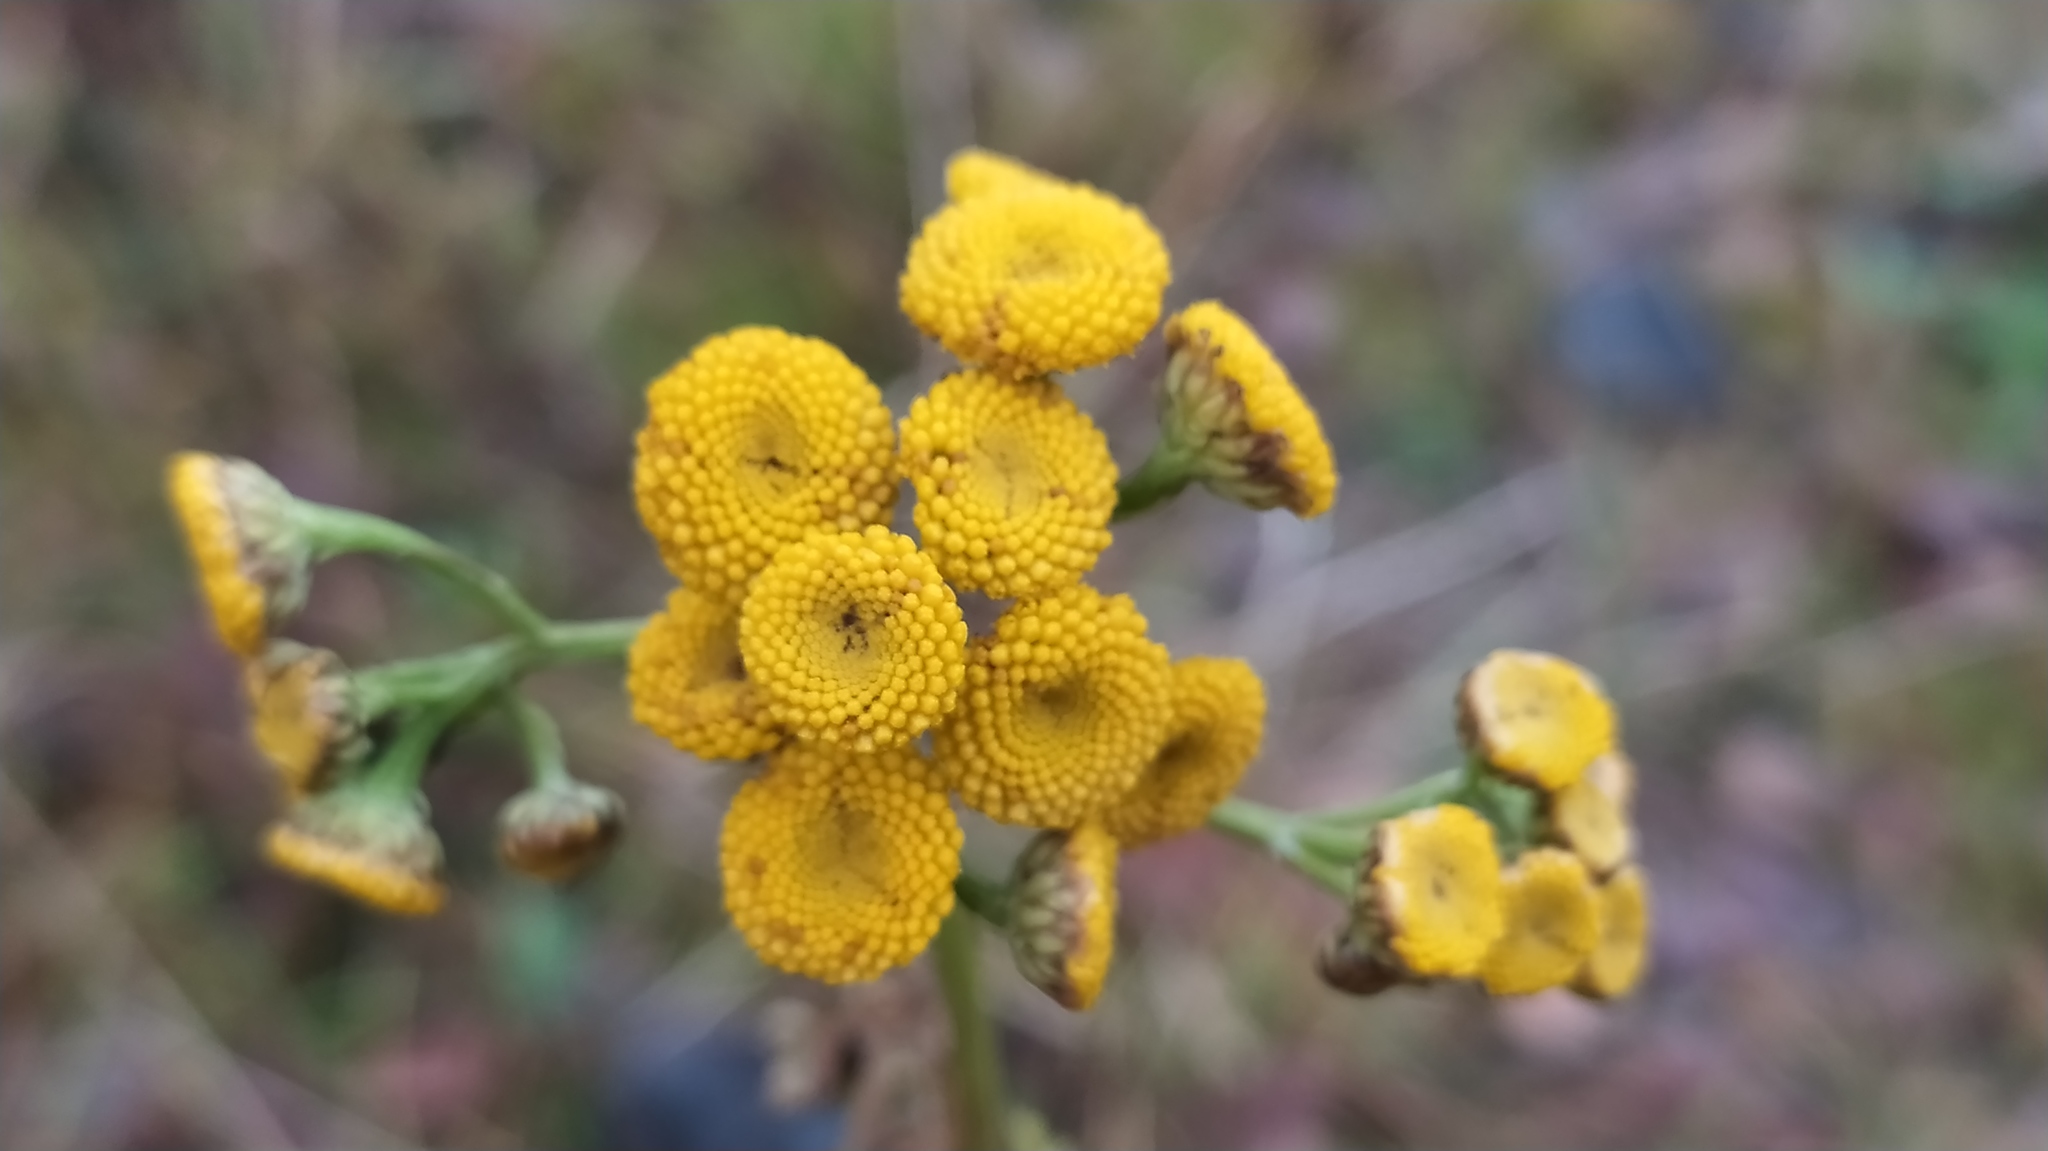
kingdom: Plantae
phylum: Tracheophyta
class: Magnoliopsida
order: Asterales
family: Asteraceae
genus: Tanacetum
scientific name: Tanacetum vulgare
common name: Common tansy
